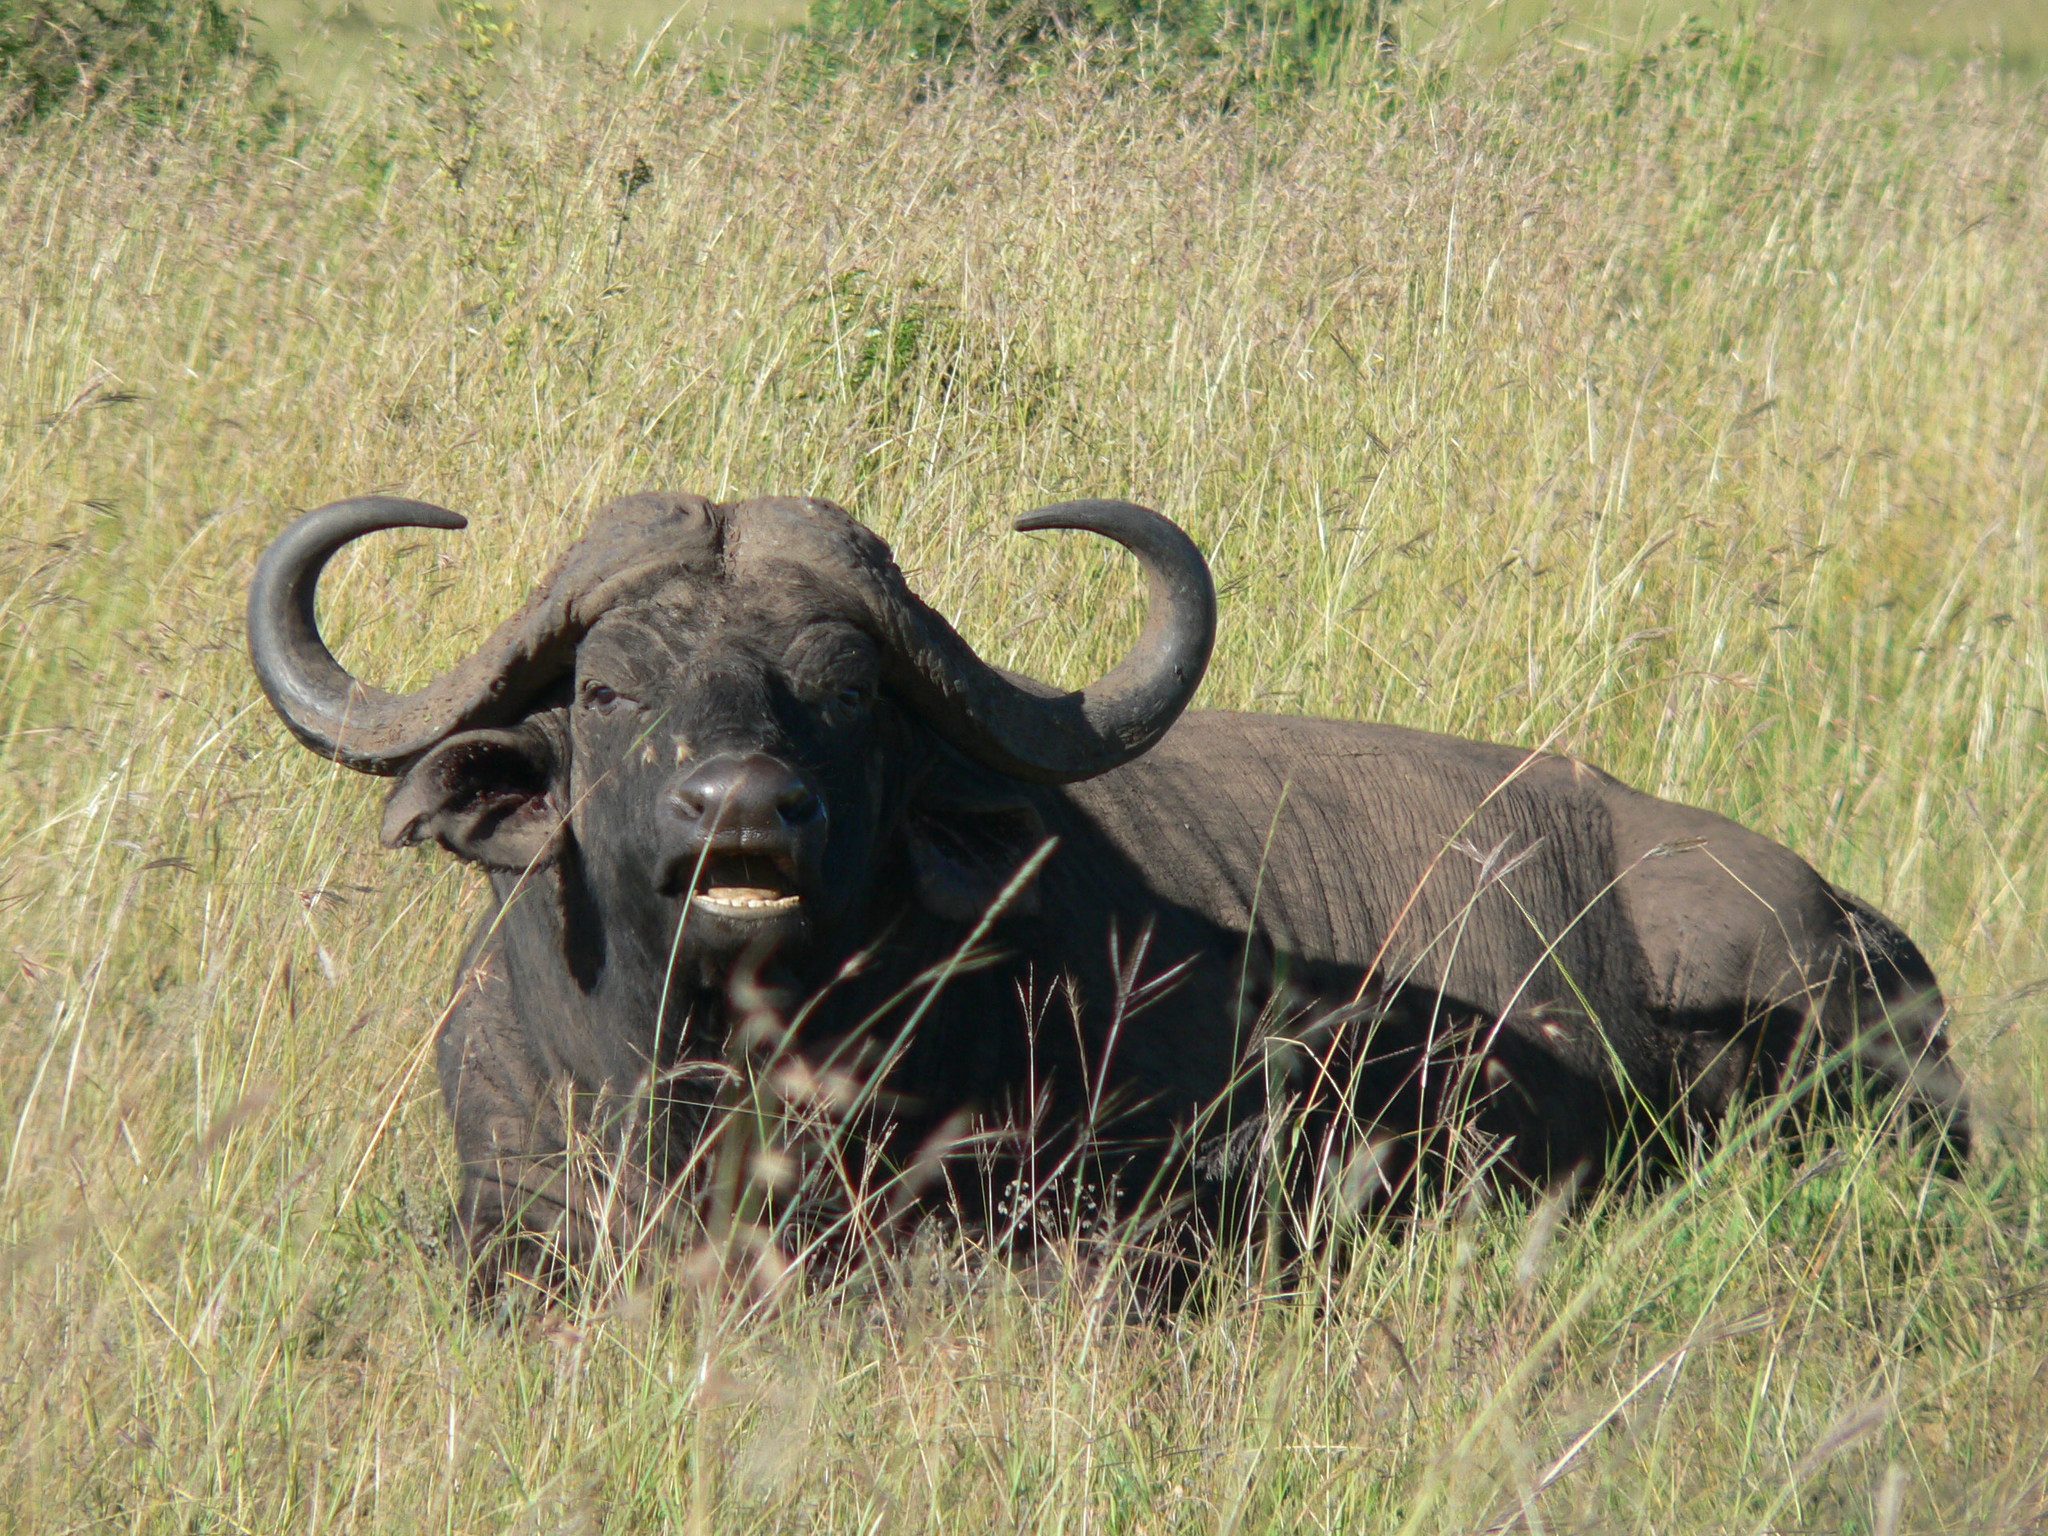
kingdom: Animalia
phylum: Chordata
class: Mammalia
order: Artiodactyla
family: Bovidae
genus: Syncerus
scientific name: Syncerus caffer
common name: African buffalo
